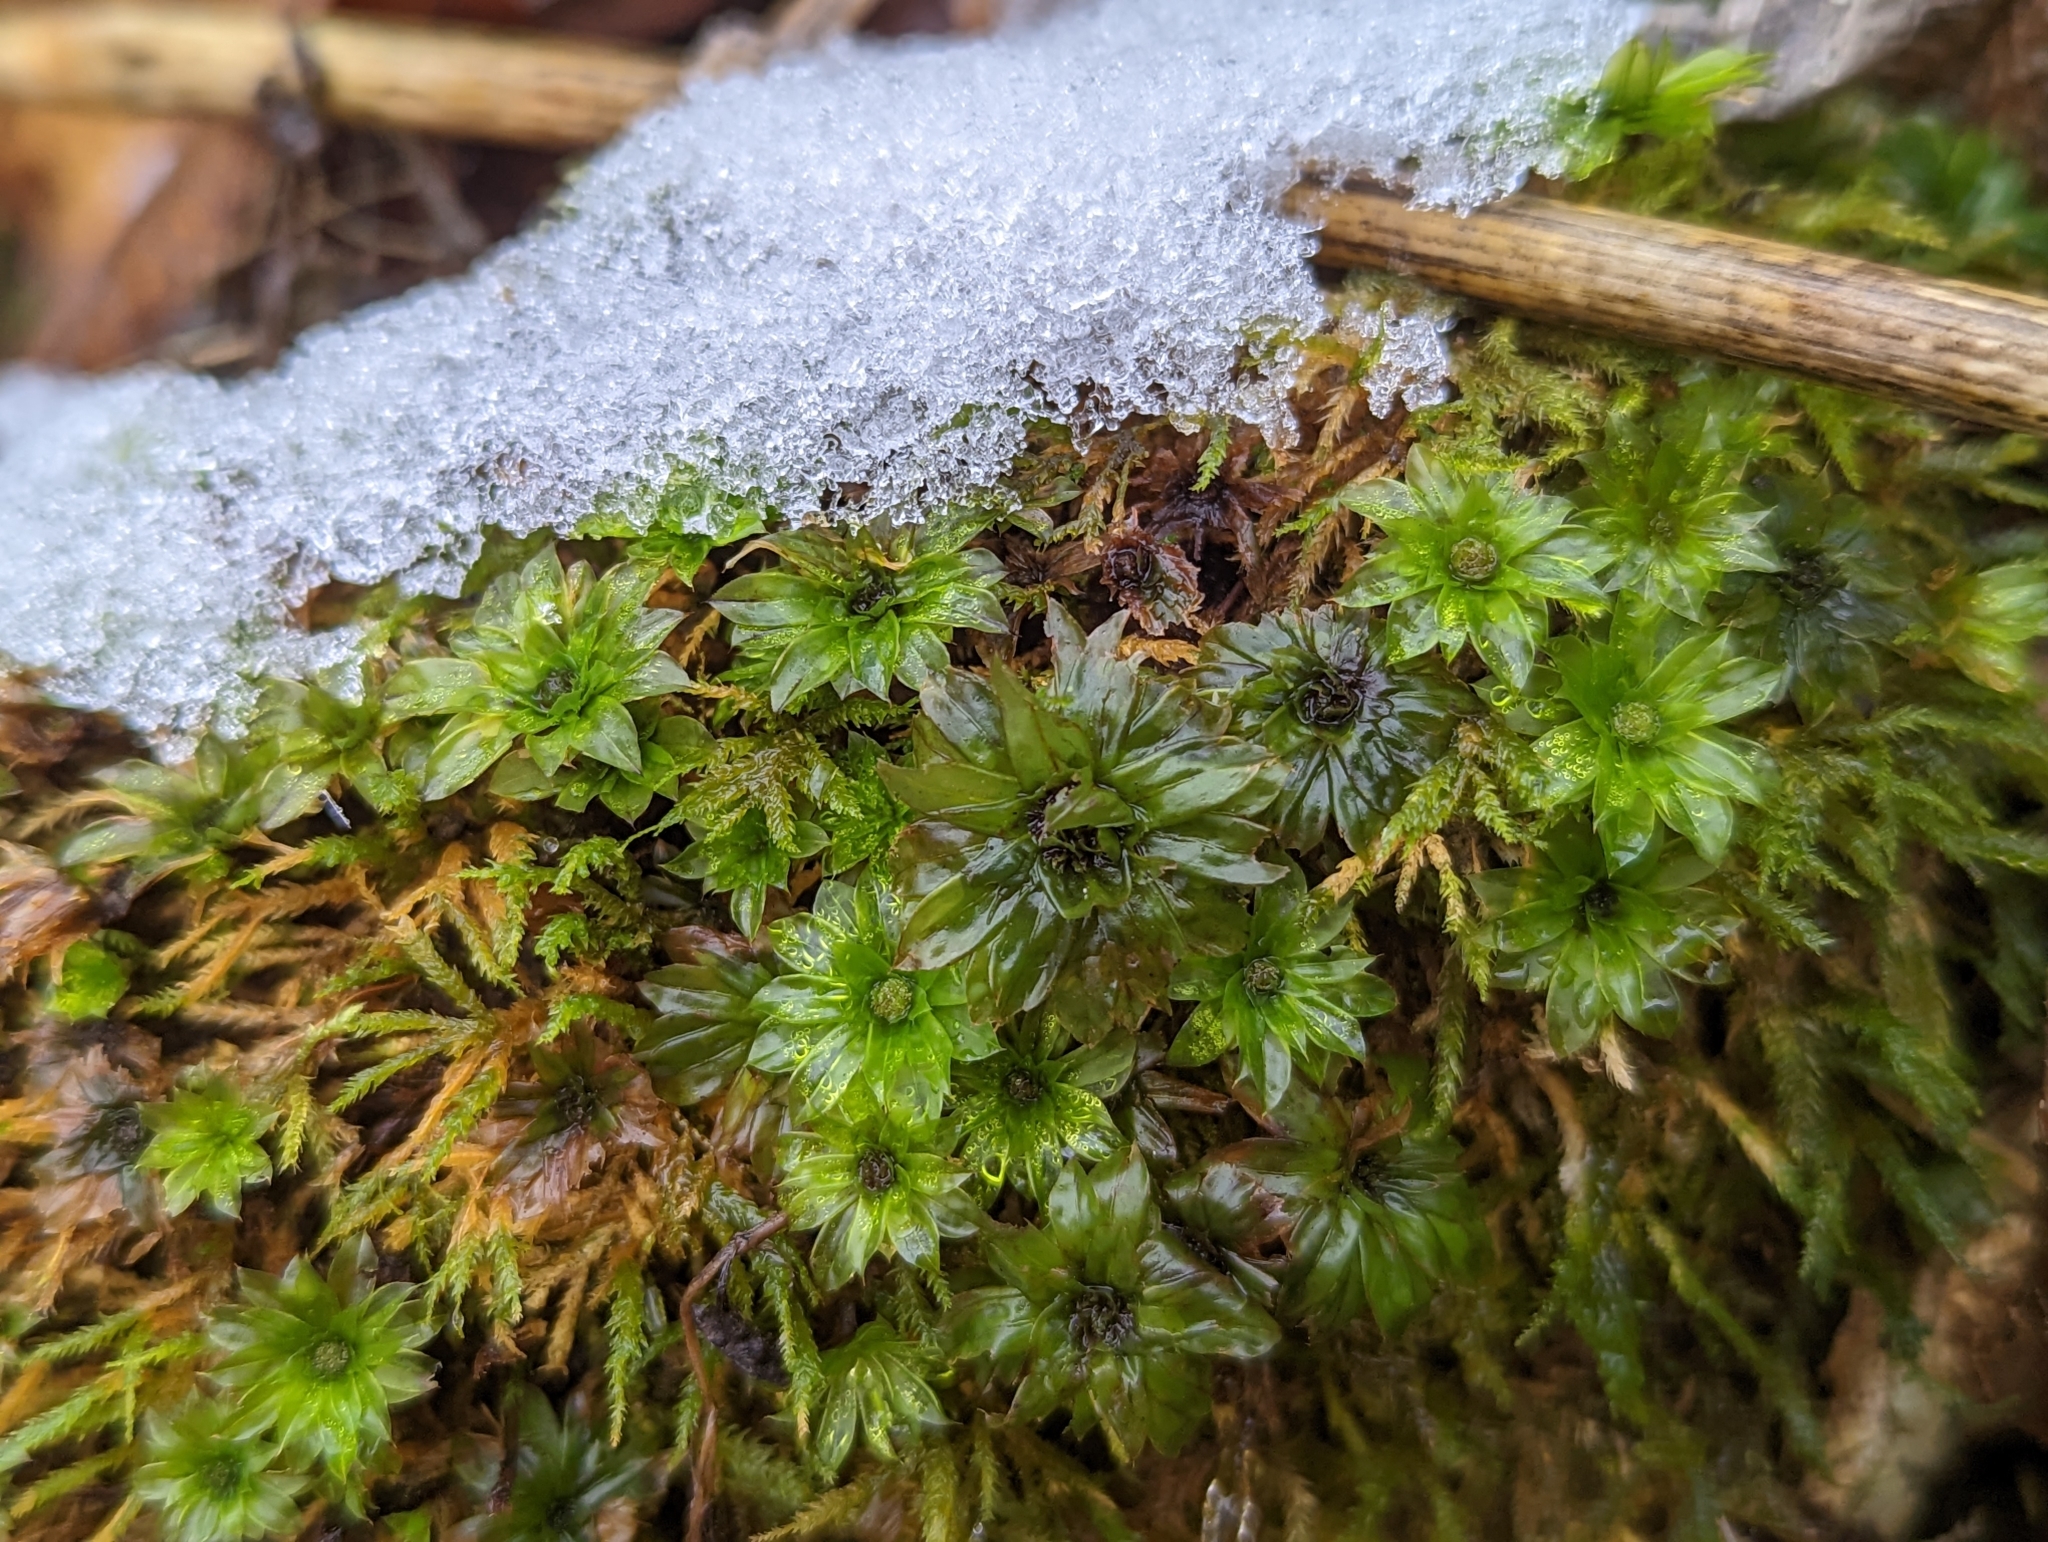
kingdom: Plantae
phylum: Bryophyta
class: Bryopsida
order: Bryales
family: Bryaceae
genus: Rhodobryum
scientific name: Rhodobryum ontariense
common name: Ontario rhodobryum moss
